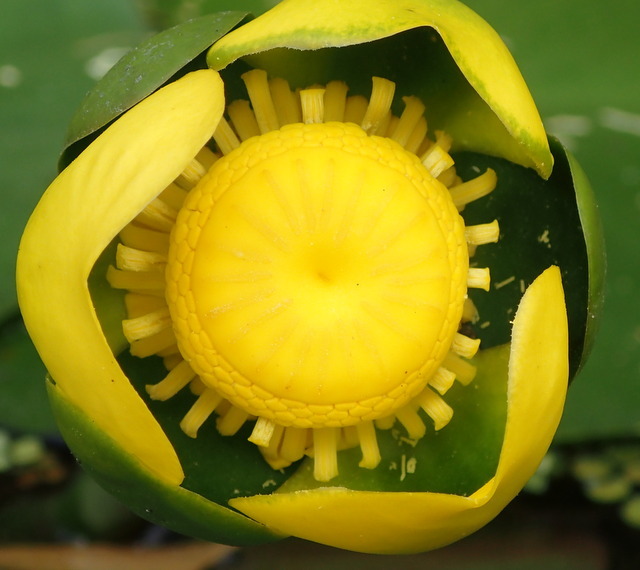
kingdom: Plantae
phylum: Tracheophyta
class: Magnoliopsida
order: Nymphaeales
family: Nymphaeaceae
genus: Nuphar
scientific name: Nuphar advena
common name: Spatter-dock
